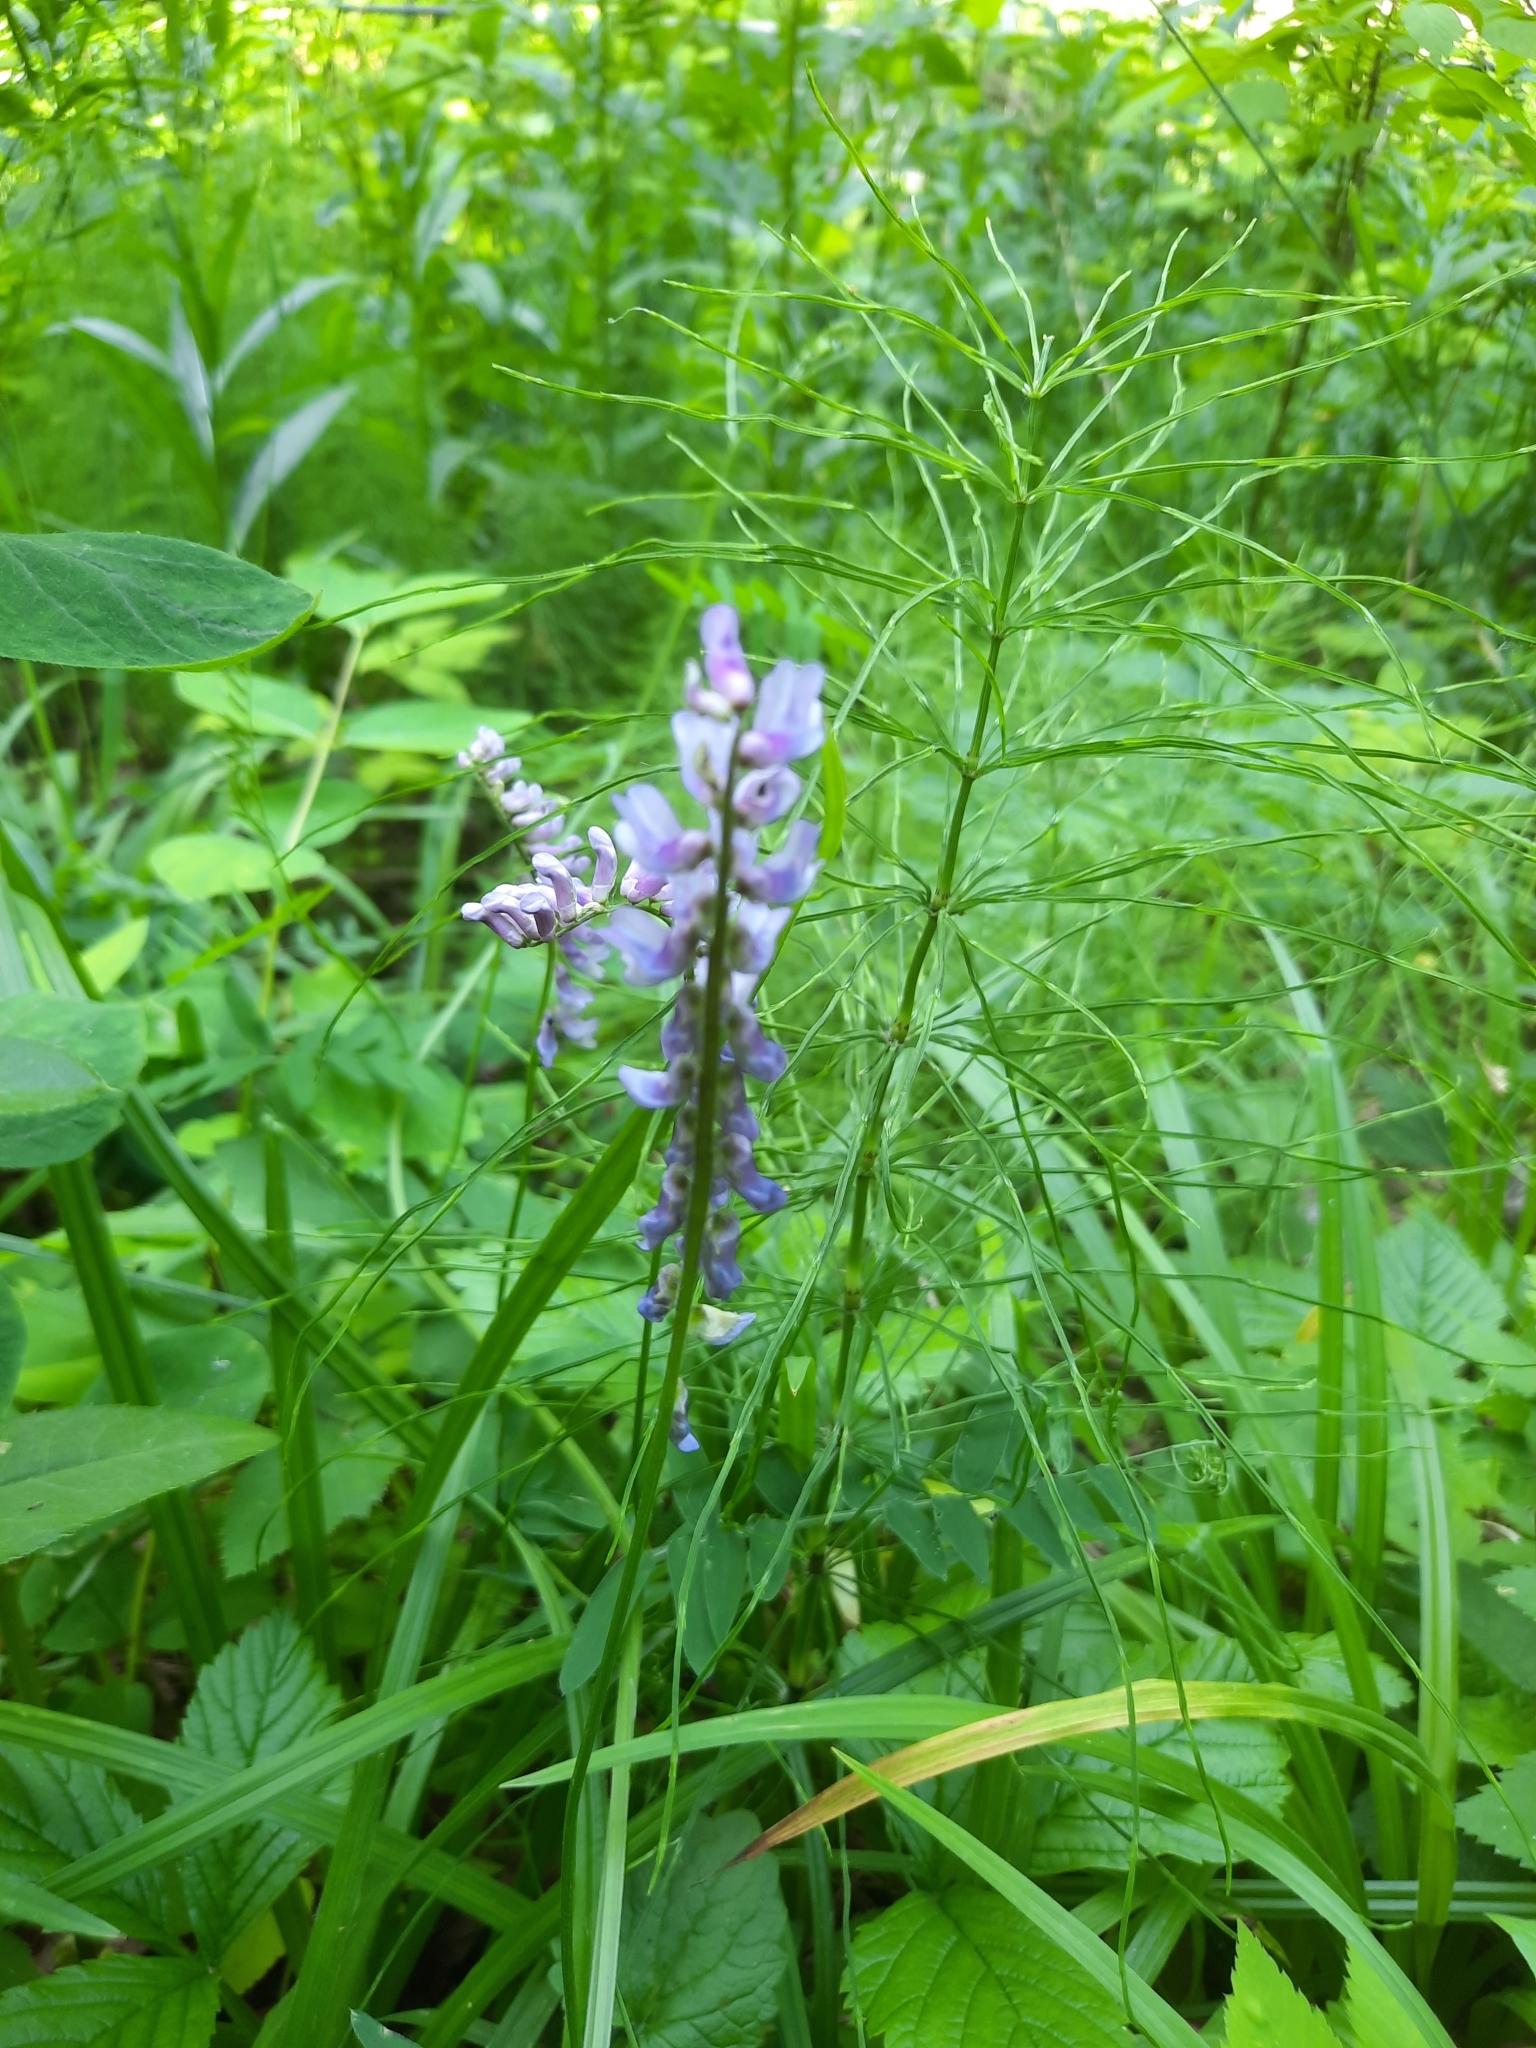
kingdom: Plantae
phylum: Tracheophyta
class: Magnoliopsida
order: Fabales
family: Fabaceae
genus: Vicia
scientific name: Vicia cracca
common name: Bird vetch
